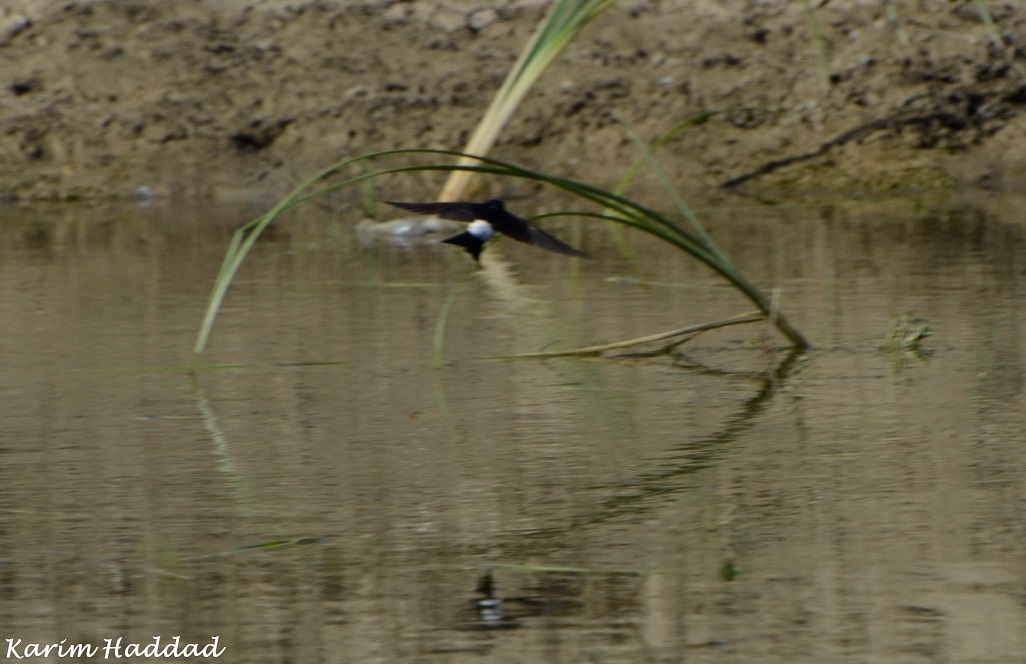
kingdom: Animalia
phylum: Chordata
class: Aves
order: Passeriformes
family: Hirundinidae
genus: Delichon
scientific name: Delichon urbicum
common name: Common house martin
